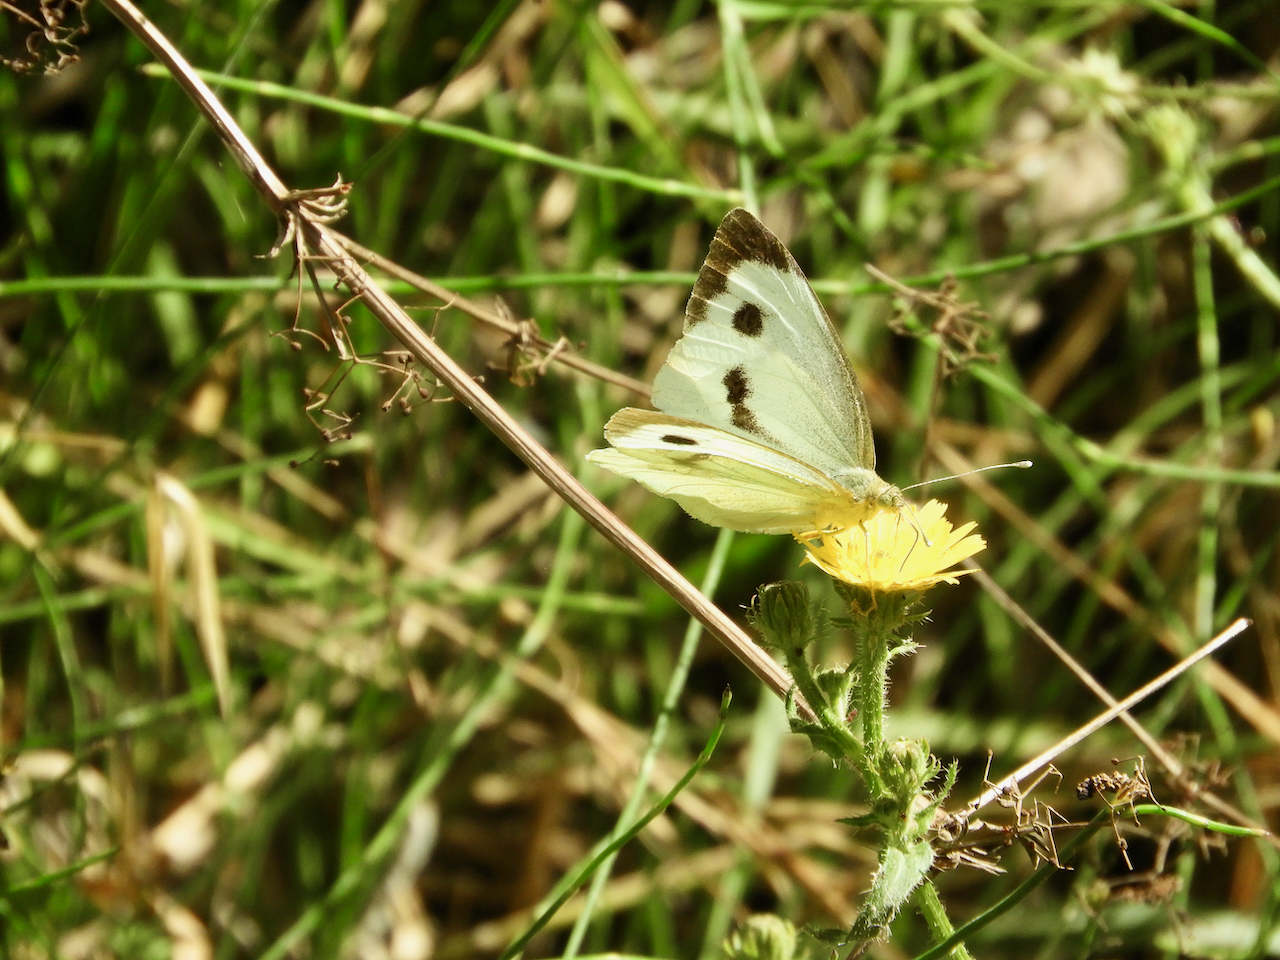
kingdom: Animalia
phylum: Arthropoda
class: Insecta
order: Lepidoptera
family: Pieridae
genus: Pieris
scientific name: Pieris brassicae
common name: Large white
